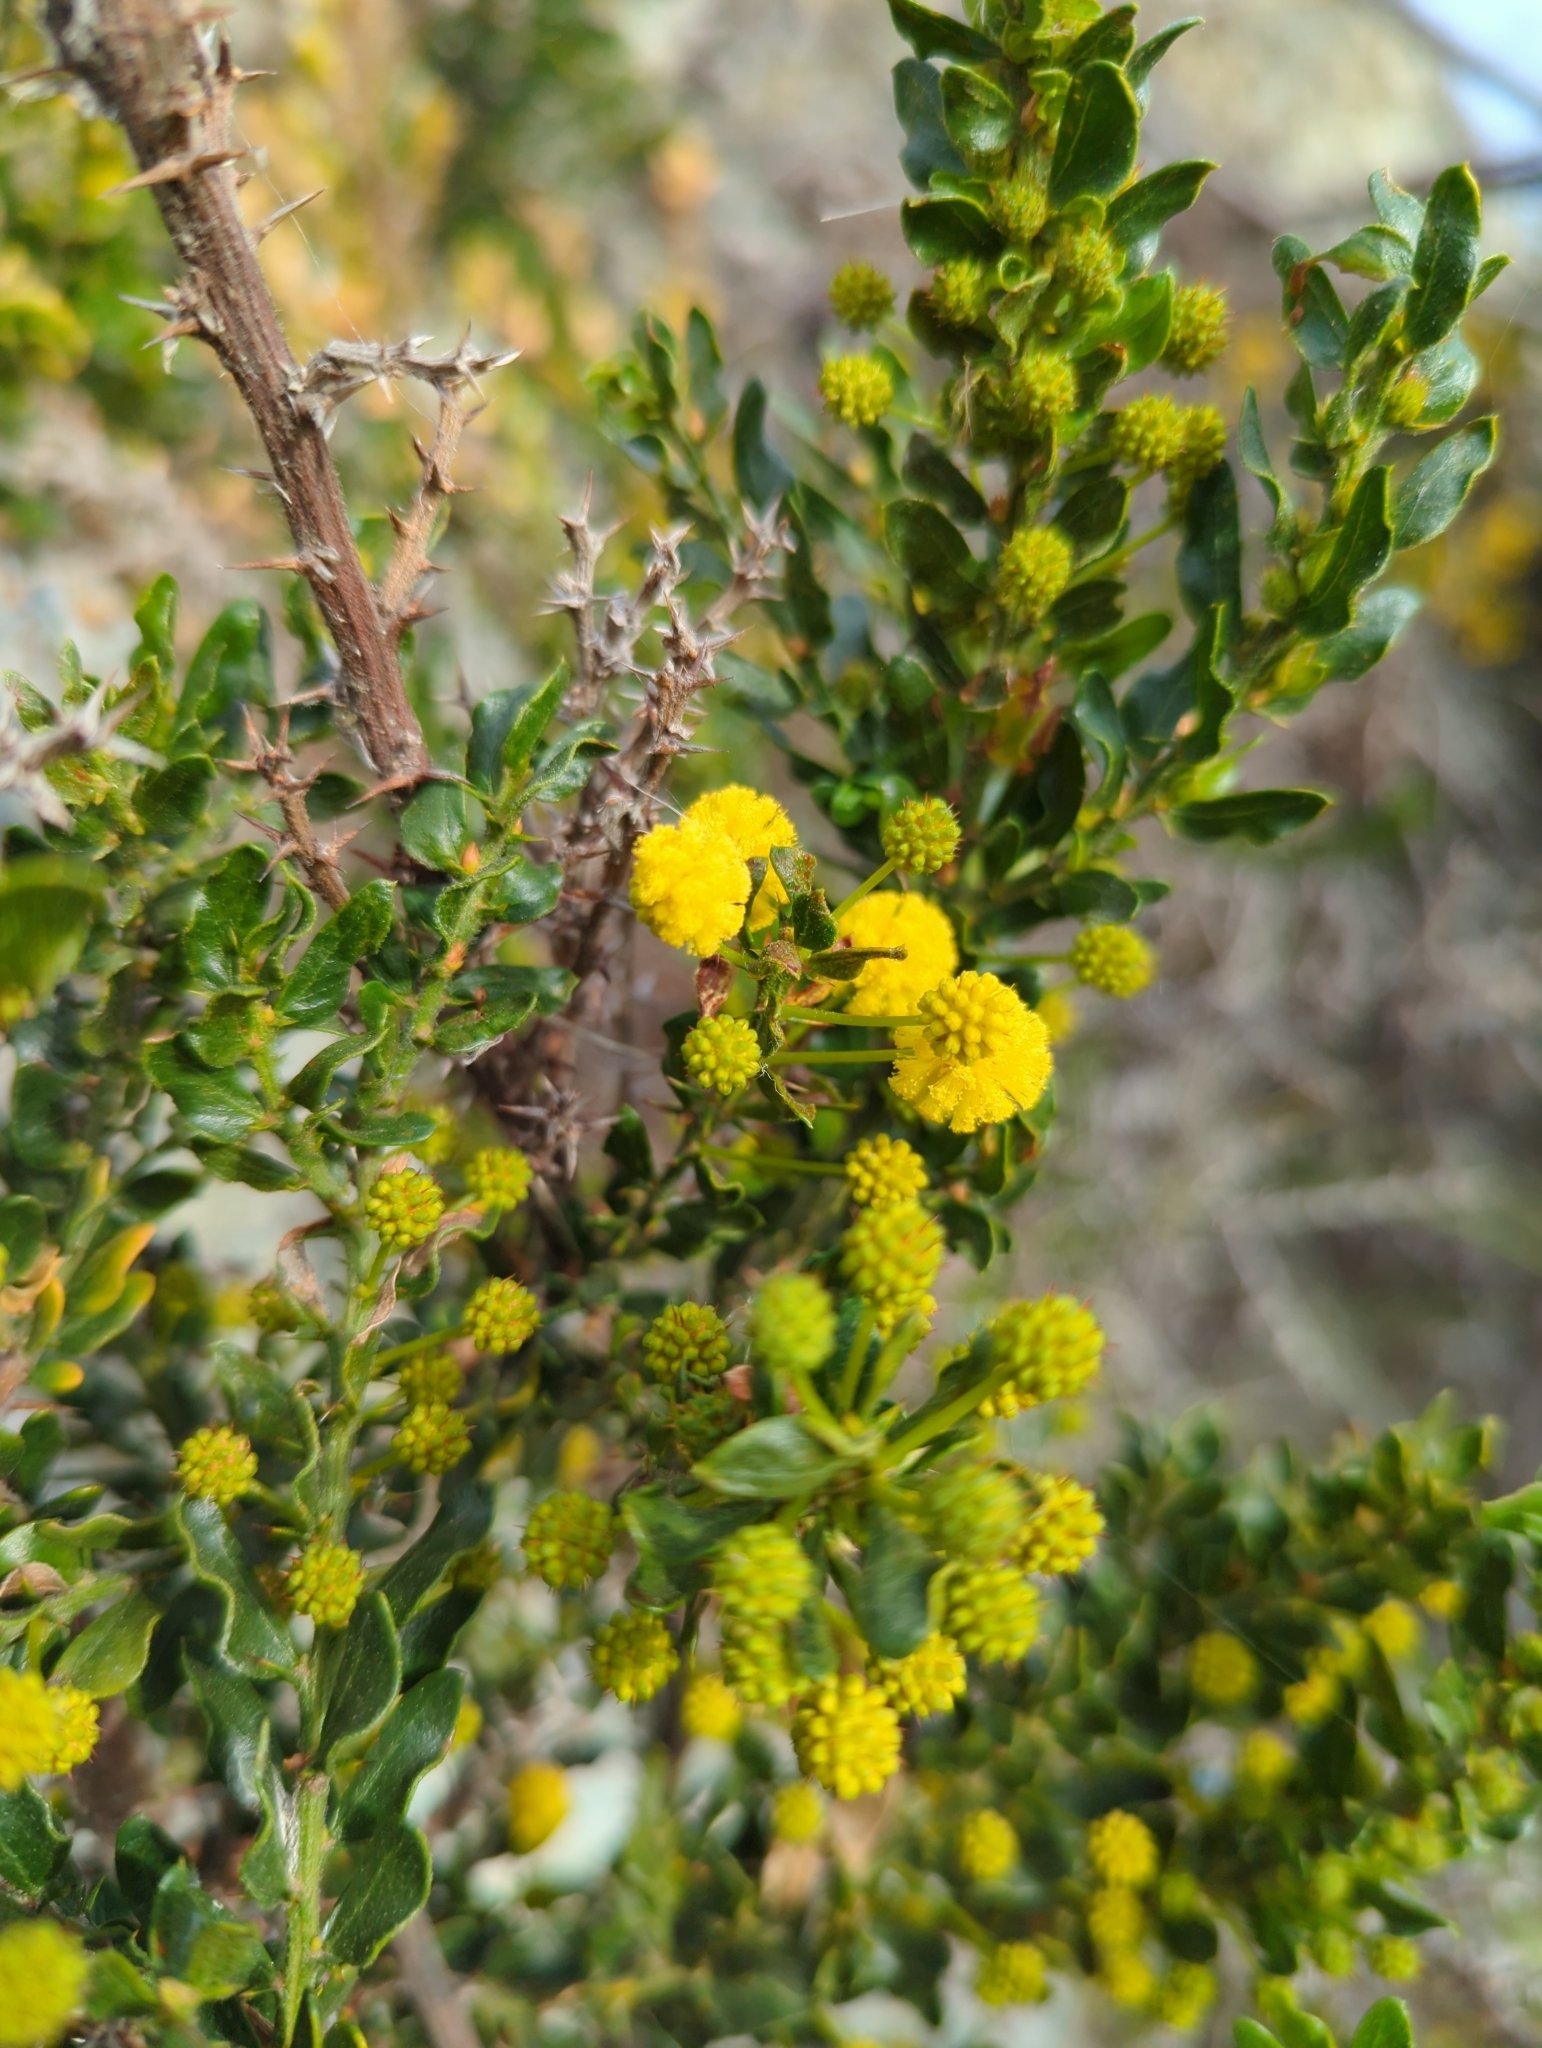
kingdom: Plantae
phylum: Tracheophyta
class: Magnoliopsida
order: Fabales
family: Fabaceae
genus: Acacia
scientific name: Acacia paradoxa
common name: Paradox acacia
